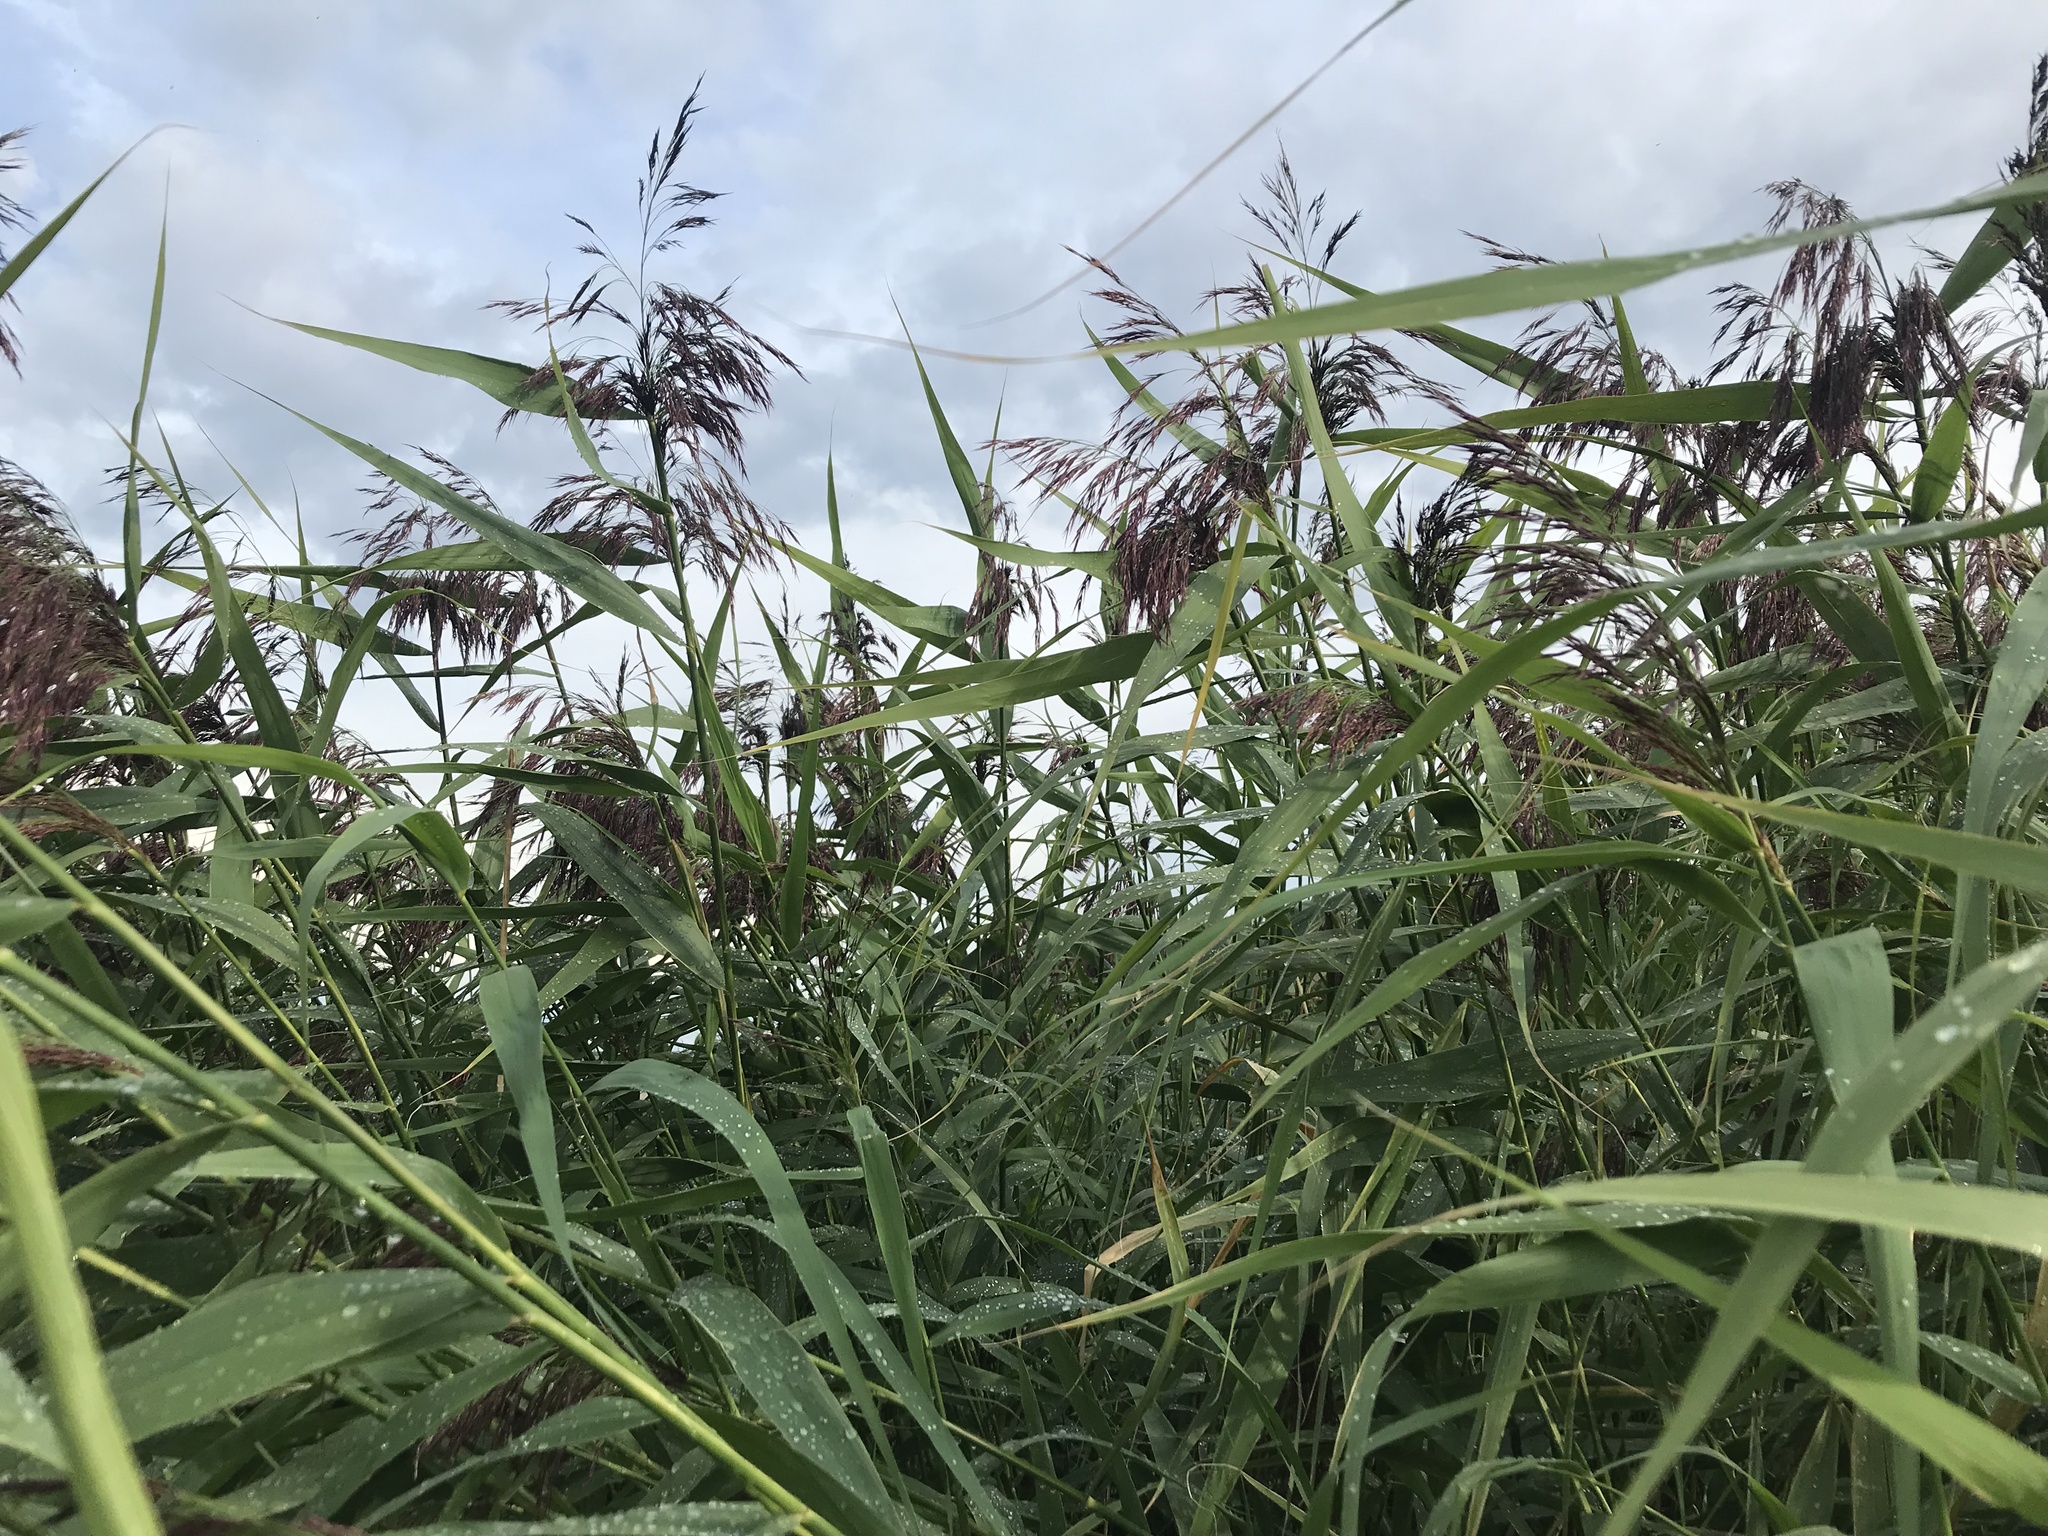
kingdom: Plantae
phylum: Tracheophyta
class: Liliopsida
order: Poales
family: Poaceae
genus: Phragmites
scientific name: Phragmites australis
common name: Common reed
